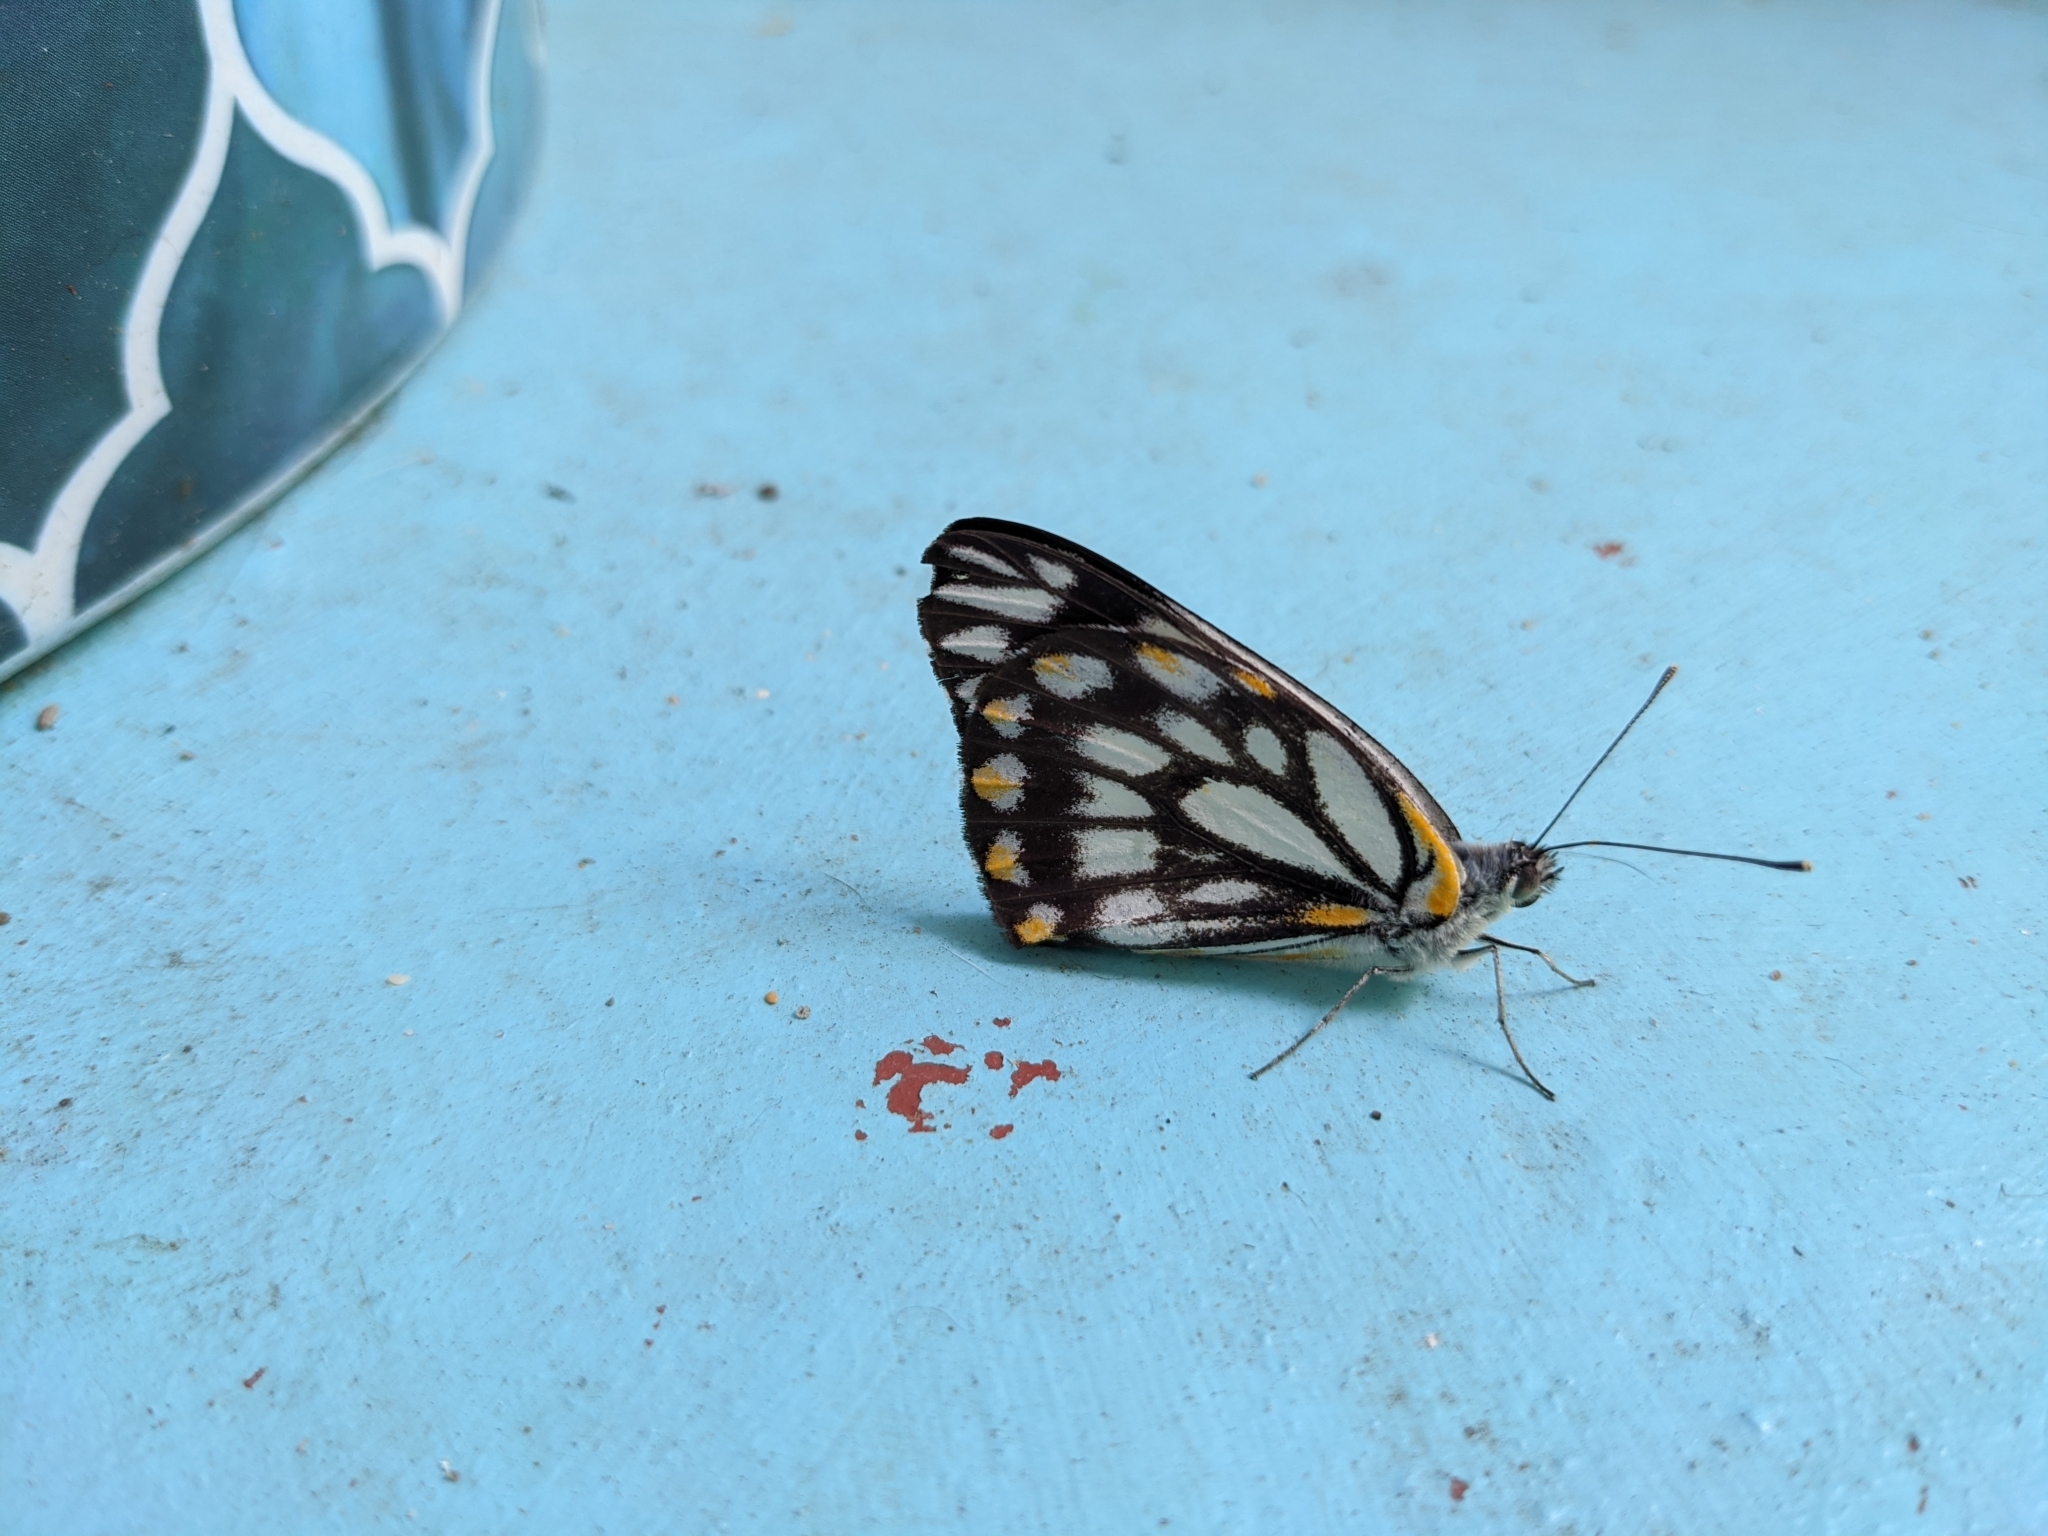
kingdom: Animalia
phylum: Arthropoda
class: Insecta
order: Lepidoptera
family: Pieridae
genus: Belenois
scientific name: Belenois java
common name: Caper white
